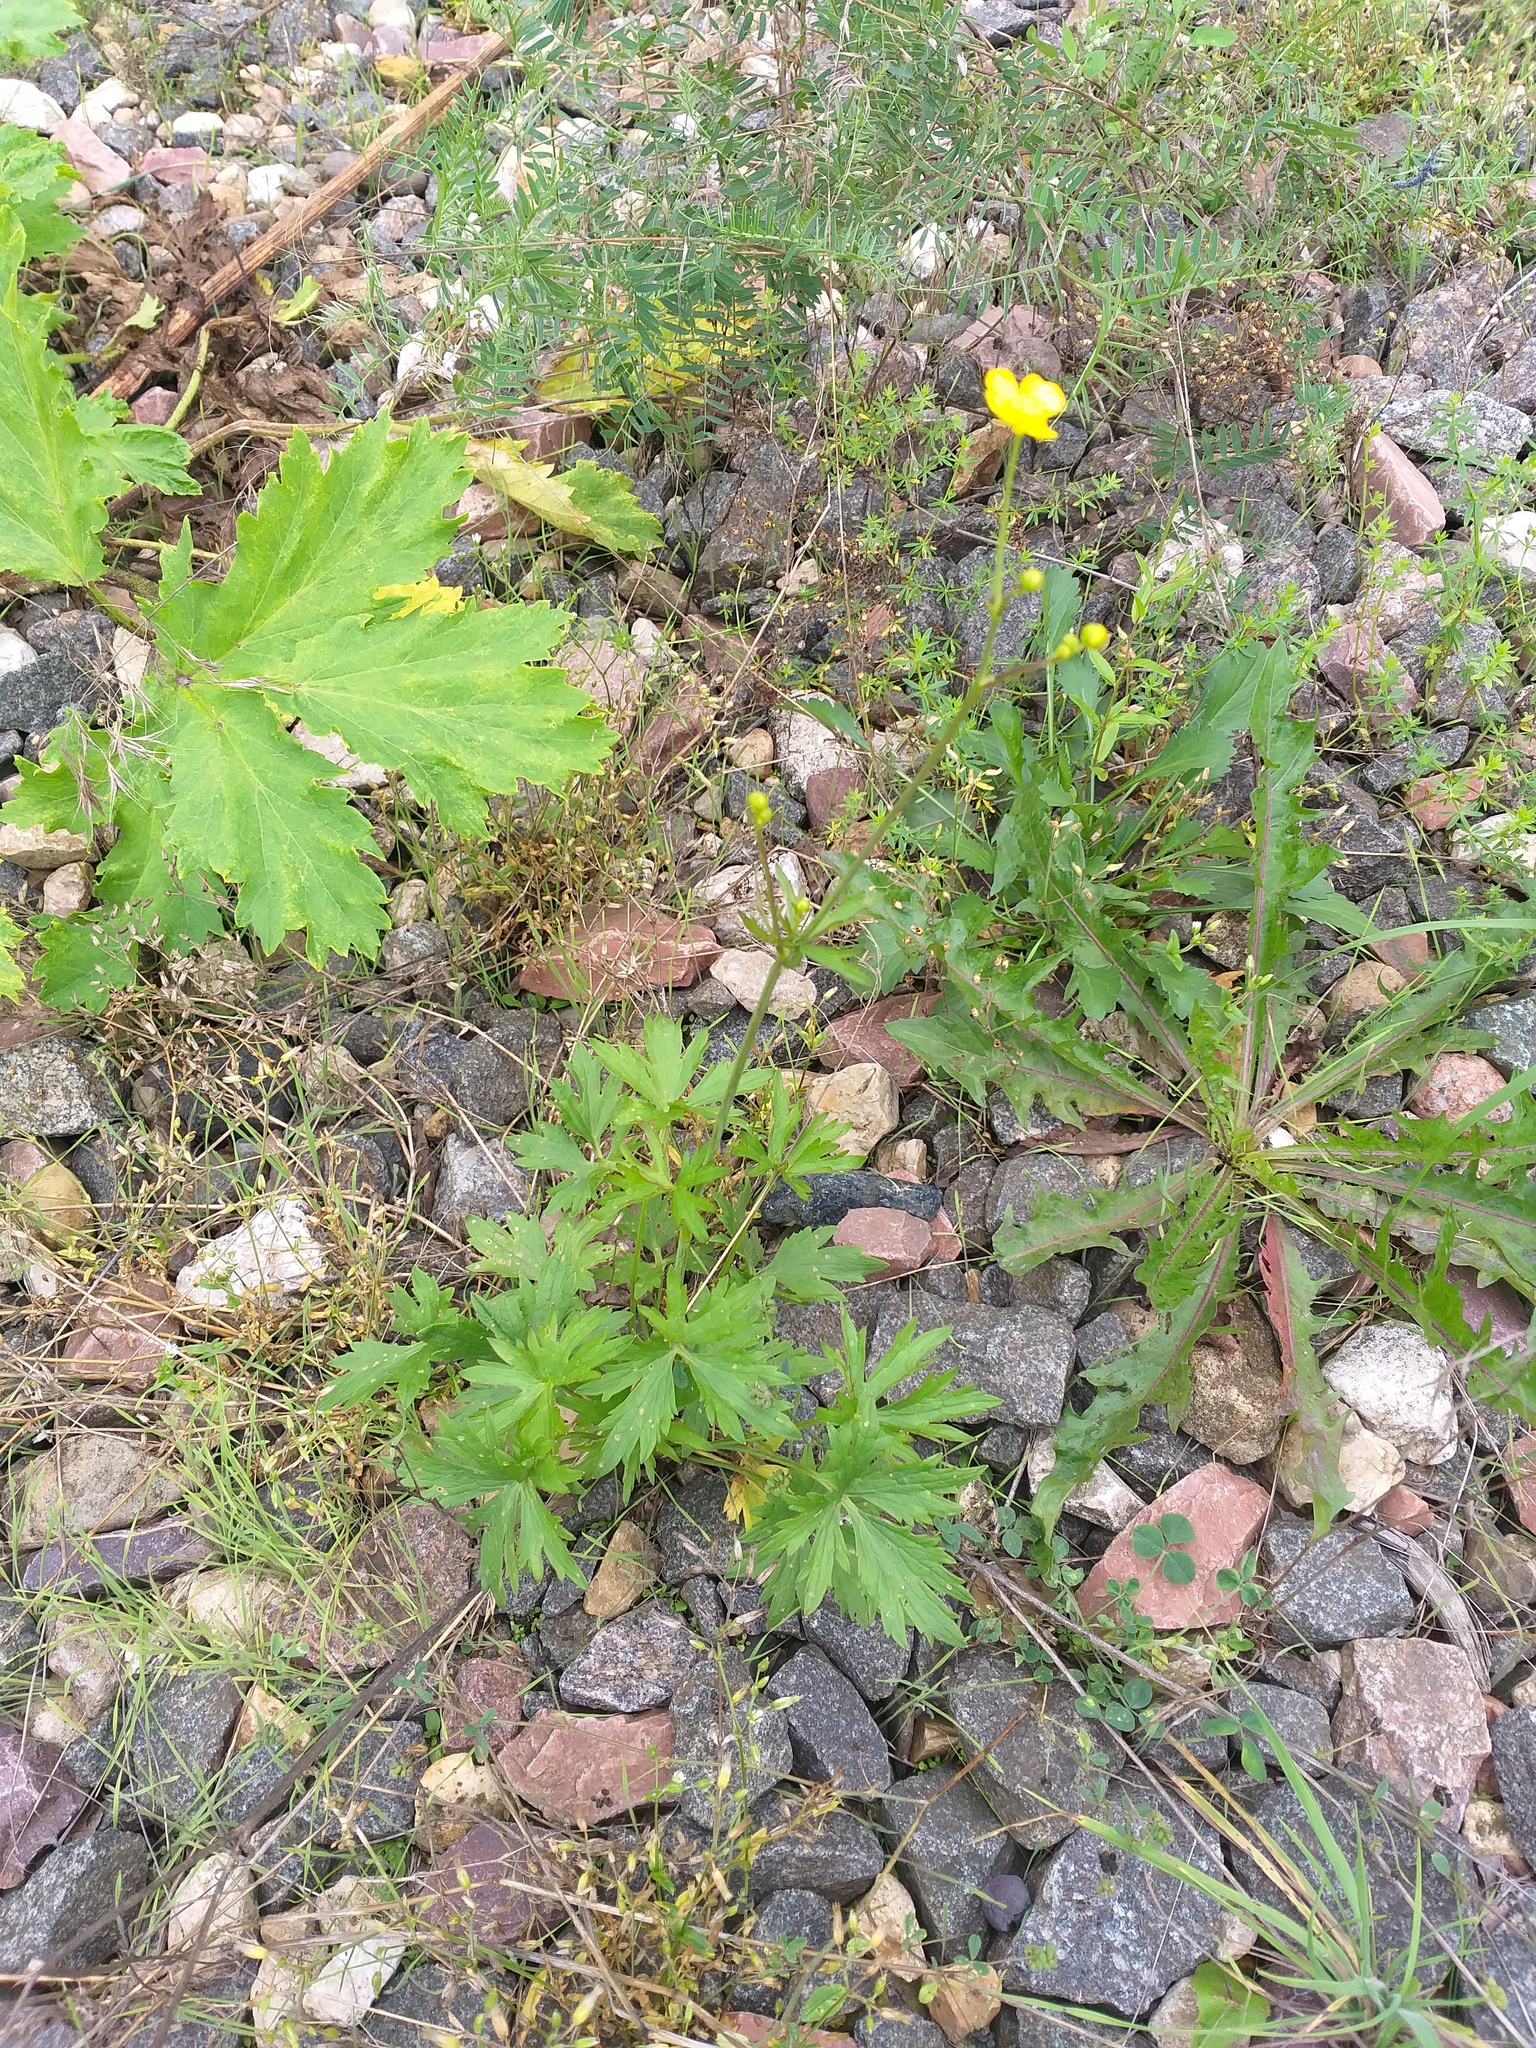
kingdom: Plantae
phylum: Tracheophyta
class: Magnoliopsida
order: Ranunculales
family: Ranunculaceae
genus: Ranunculus
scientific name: Ranunculus acris
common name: Meadow buttercup
